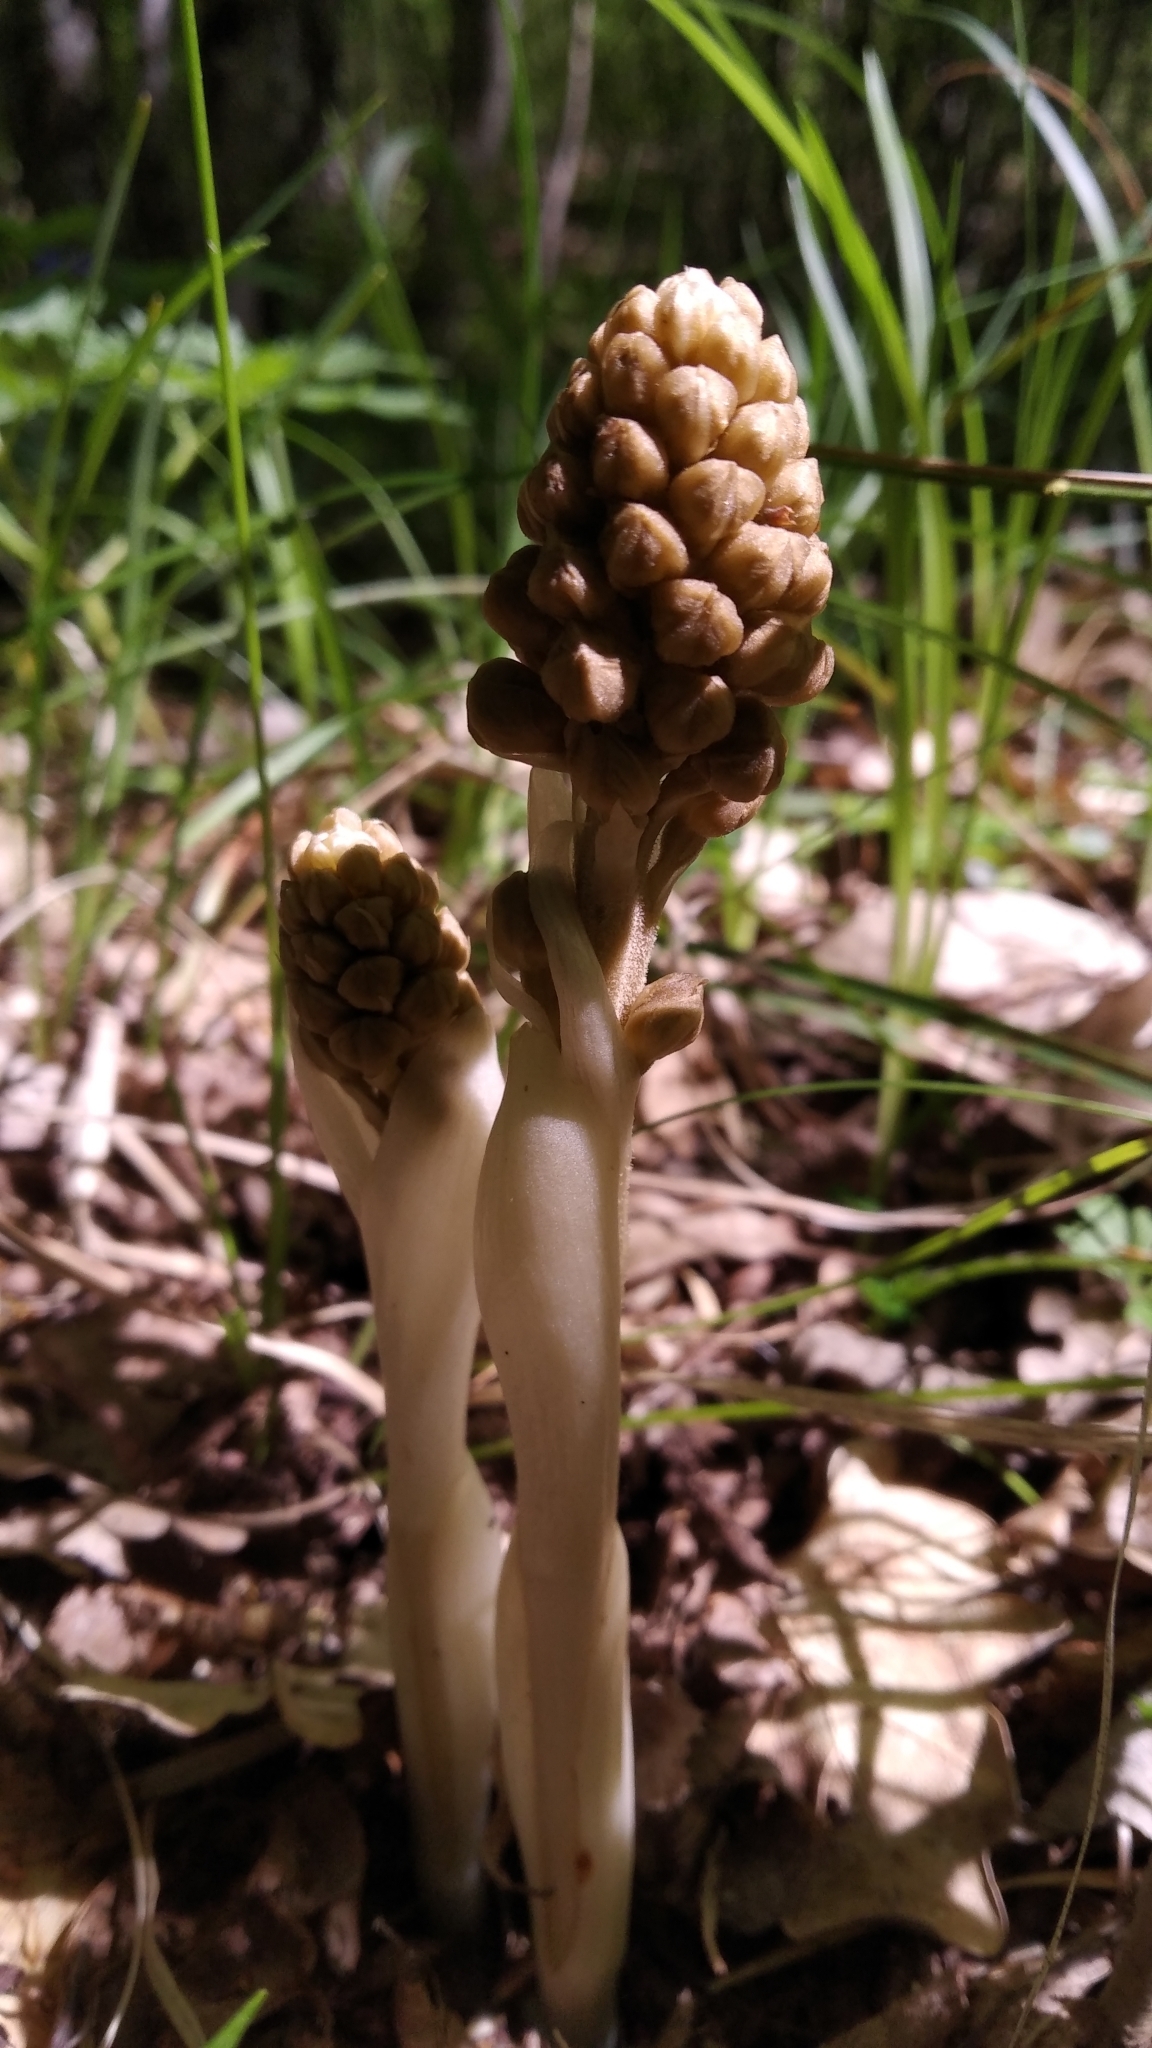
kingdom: Plantae
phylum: Tracheophyta
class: Liliopsida
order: Asparagales
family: Orchidaceae
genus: Neottia
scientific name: Neottia nidus-avis
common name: Bird's-nest orchid
